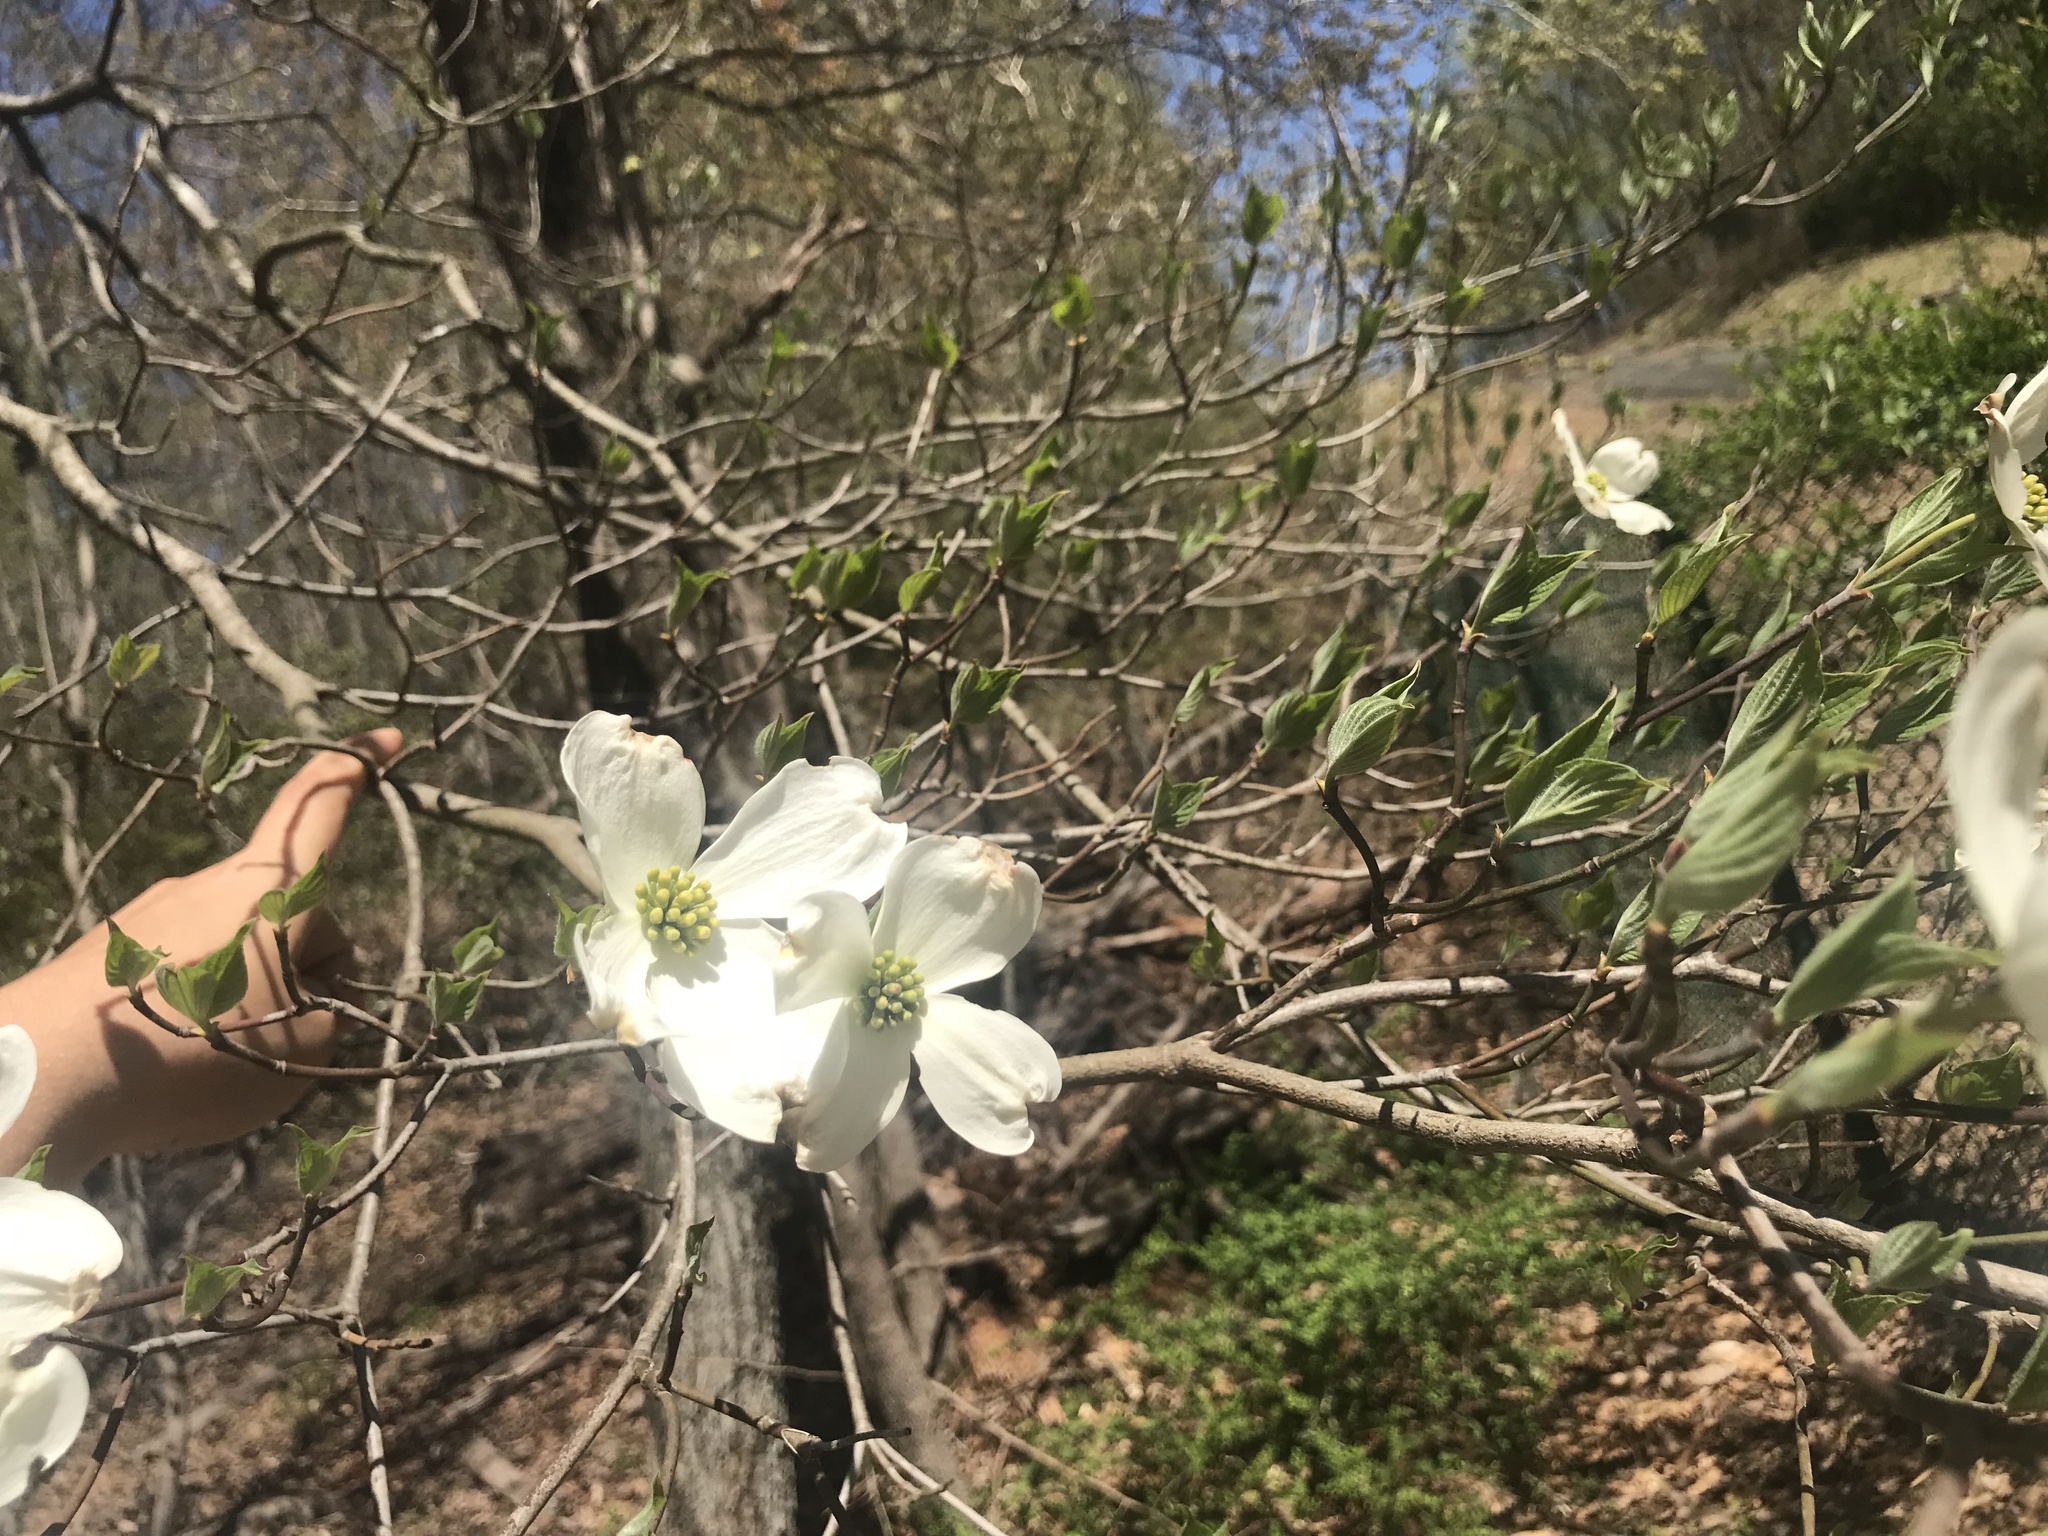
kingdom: Plantae
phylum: Tracheophyta
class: Magnoliopsida
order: Cornales
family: Cornaceae
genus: Cornus
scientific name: Cornus florida
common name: Flowering dogwood
